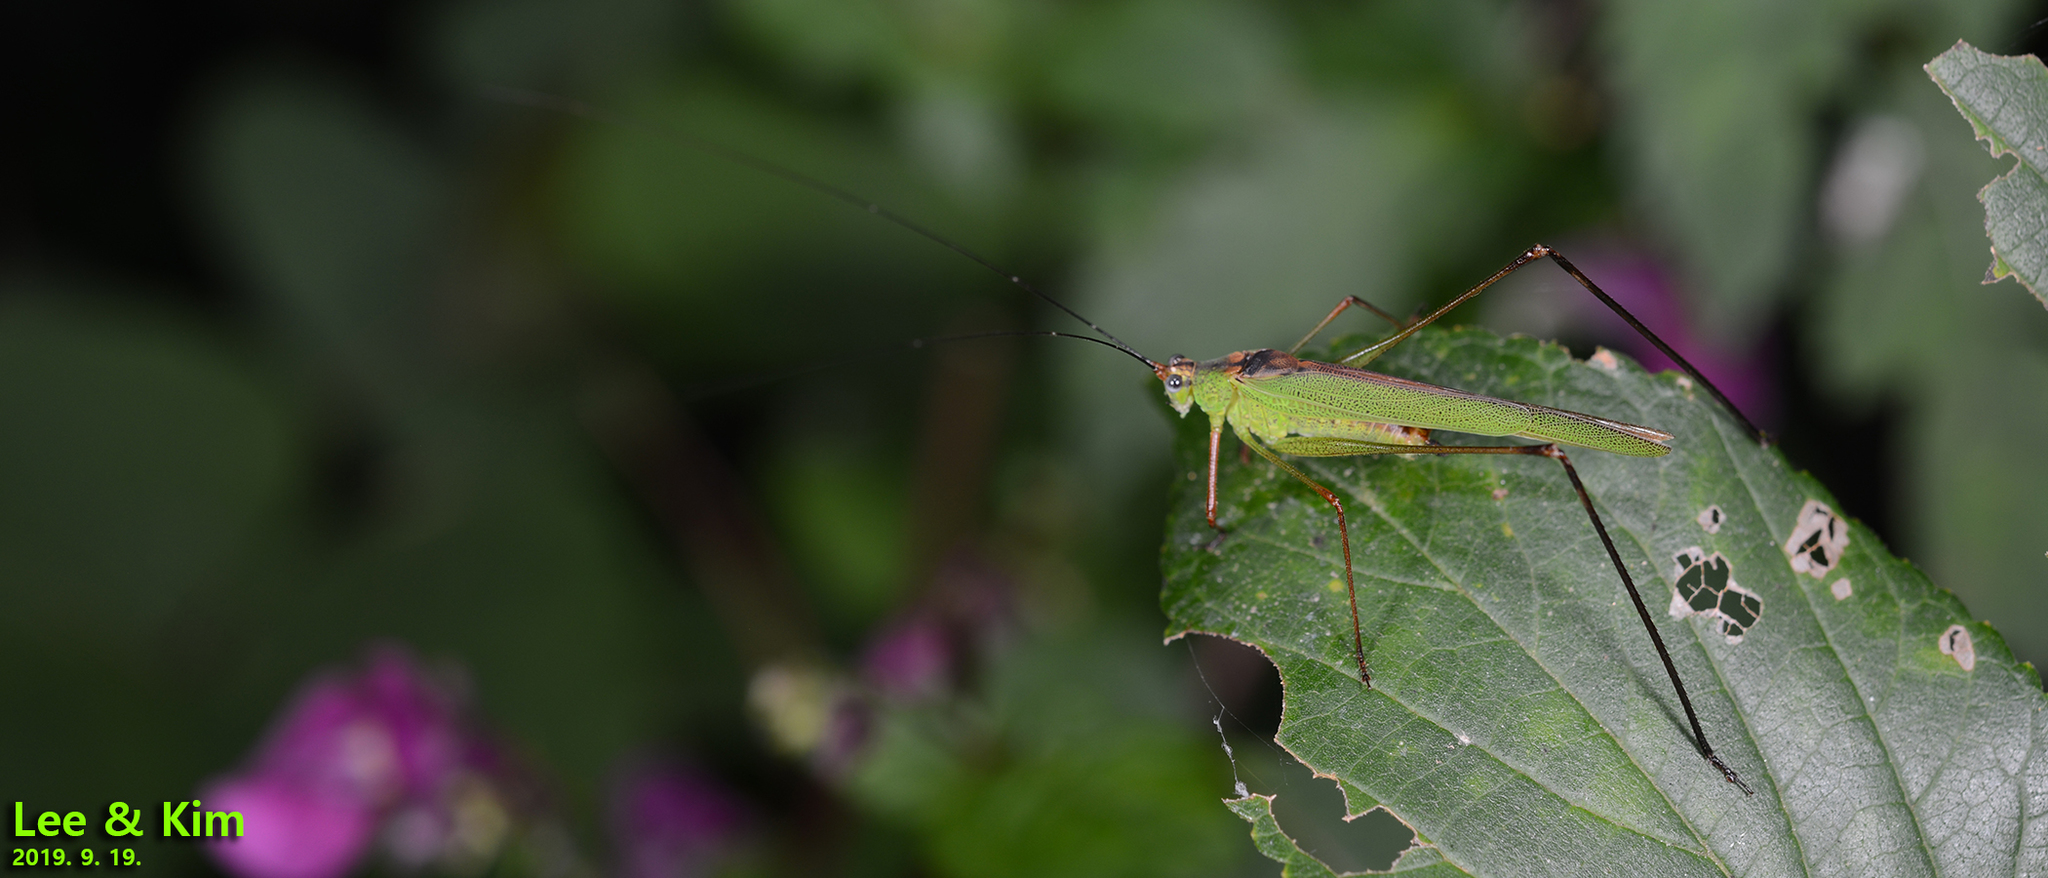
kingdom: Animalia
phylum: Arthropoda
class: Insecta
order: Orthoptera
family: Tettigoniidae
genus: Phaneroptera
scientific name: Phaneroptera nigroantennata
